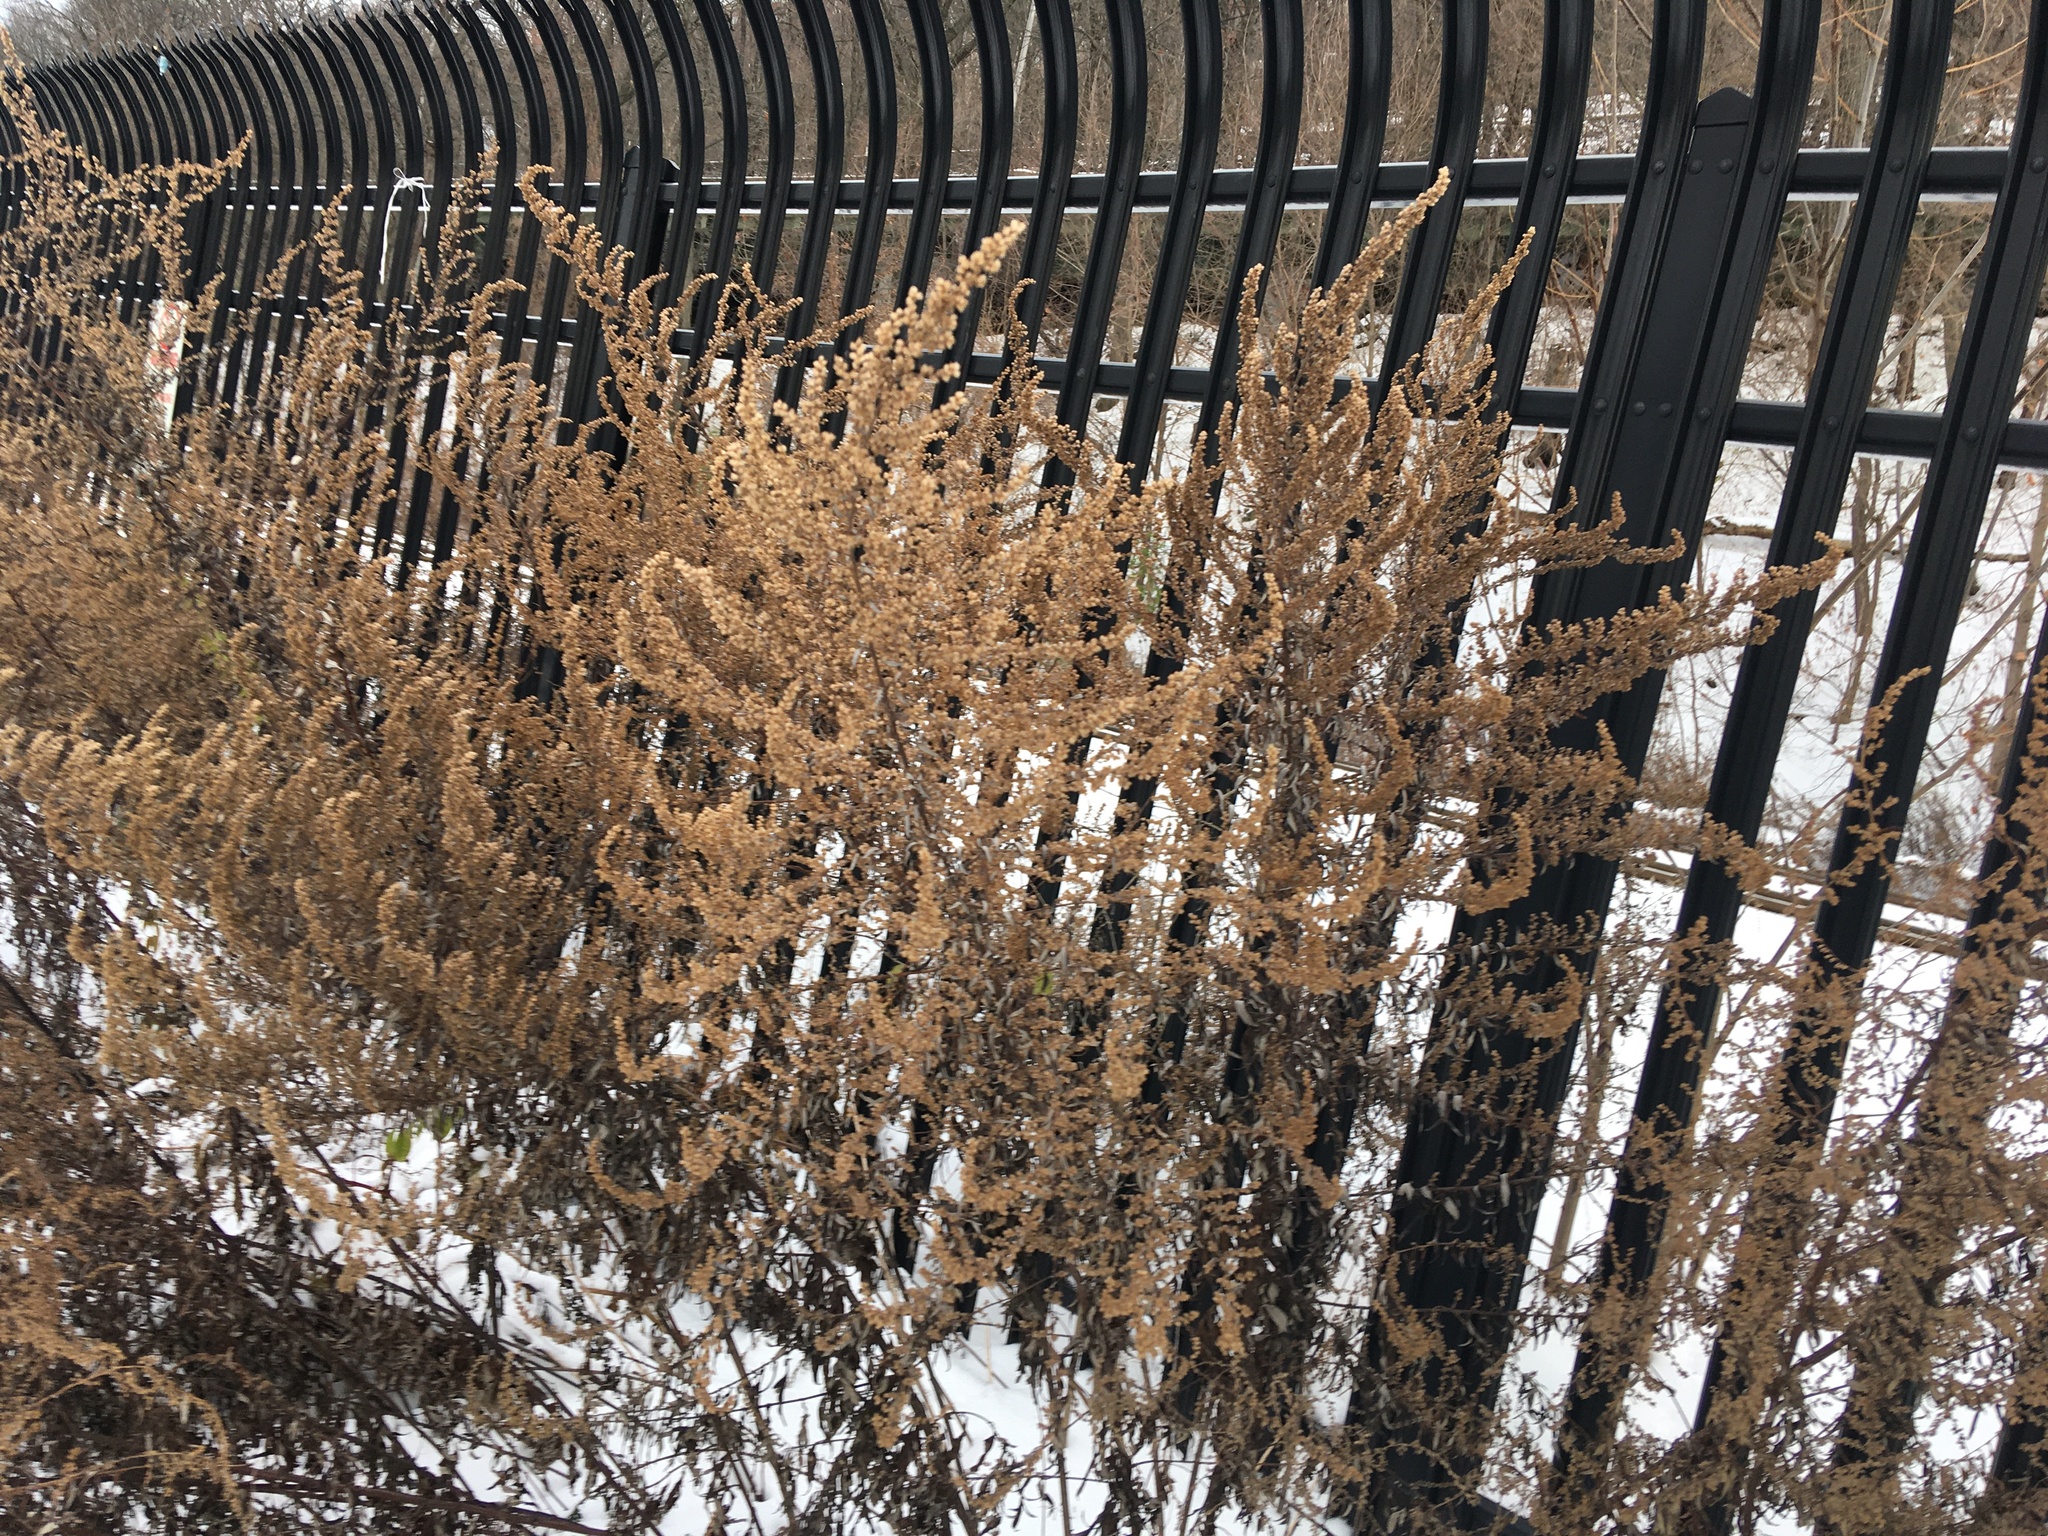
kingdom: Plantae
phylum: Tracheophyta
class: Magnoliopsida
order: Asterales
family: Asteraceae
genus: Artemisia
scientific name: Artemisia vulgaris
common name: Mugwort
